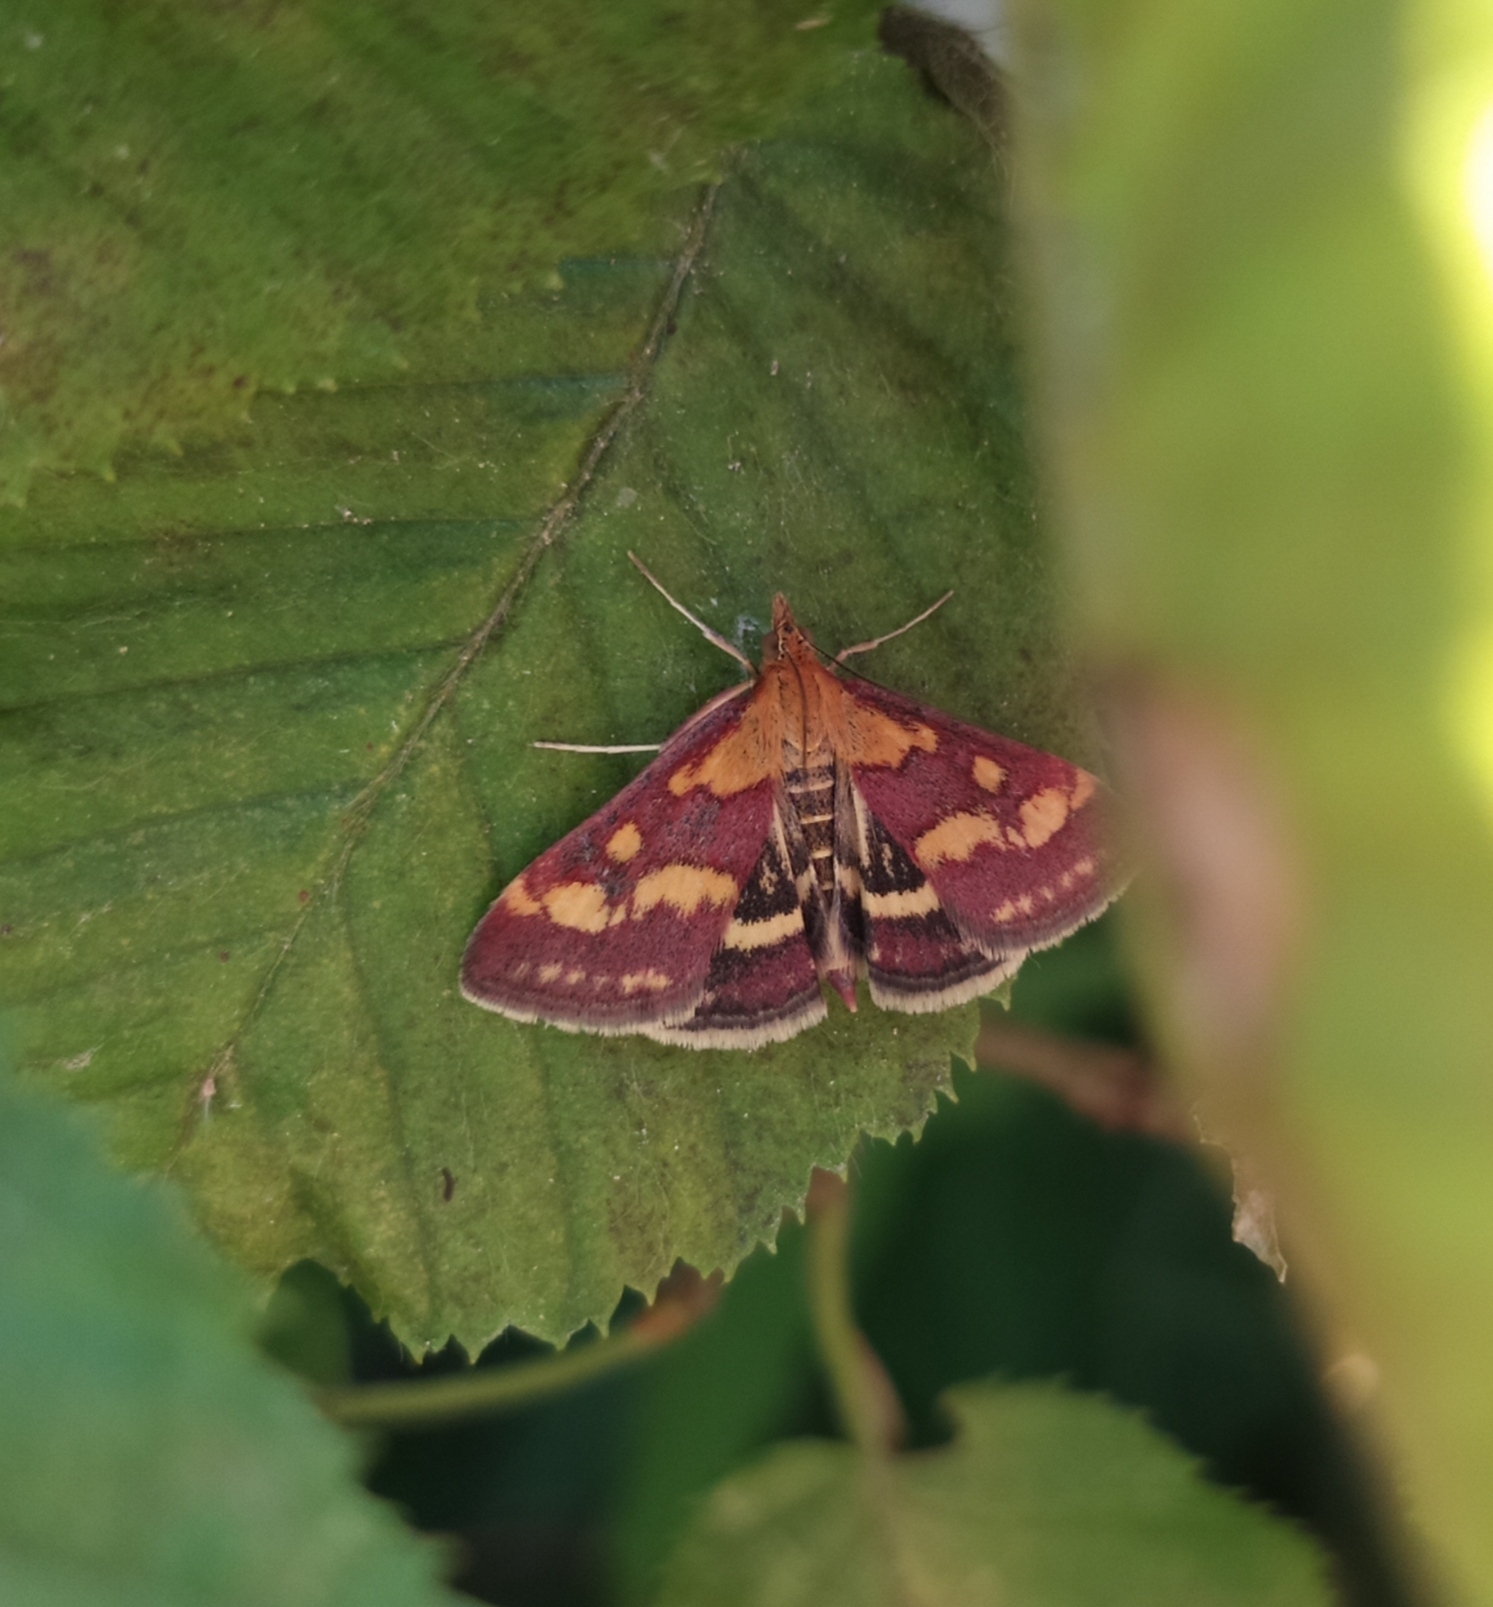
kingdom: Animalia
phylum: Arthropoda
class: Insecta
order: Lepidoptera
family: Crambidae
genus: Pyrausta
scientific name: Pyrausta purpuralis
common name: Common purple & gold
